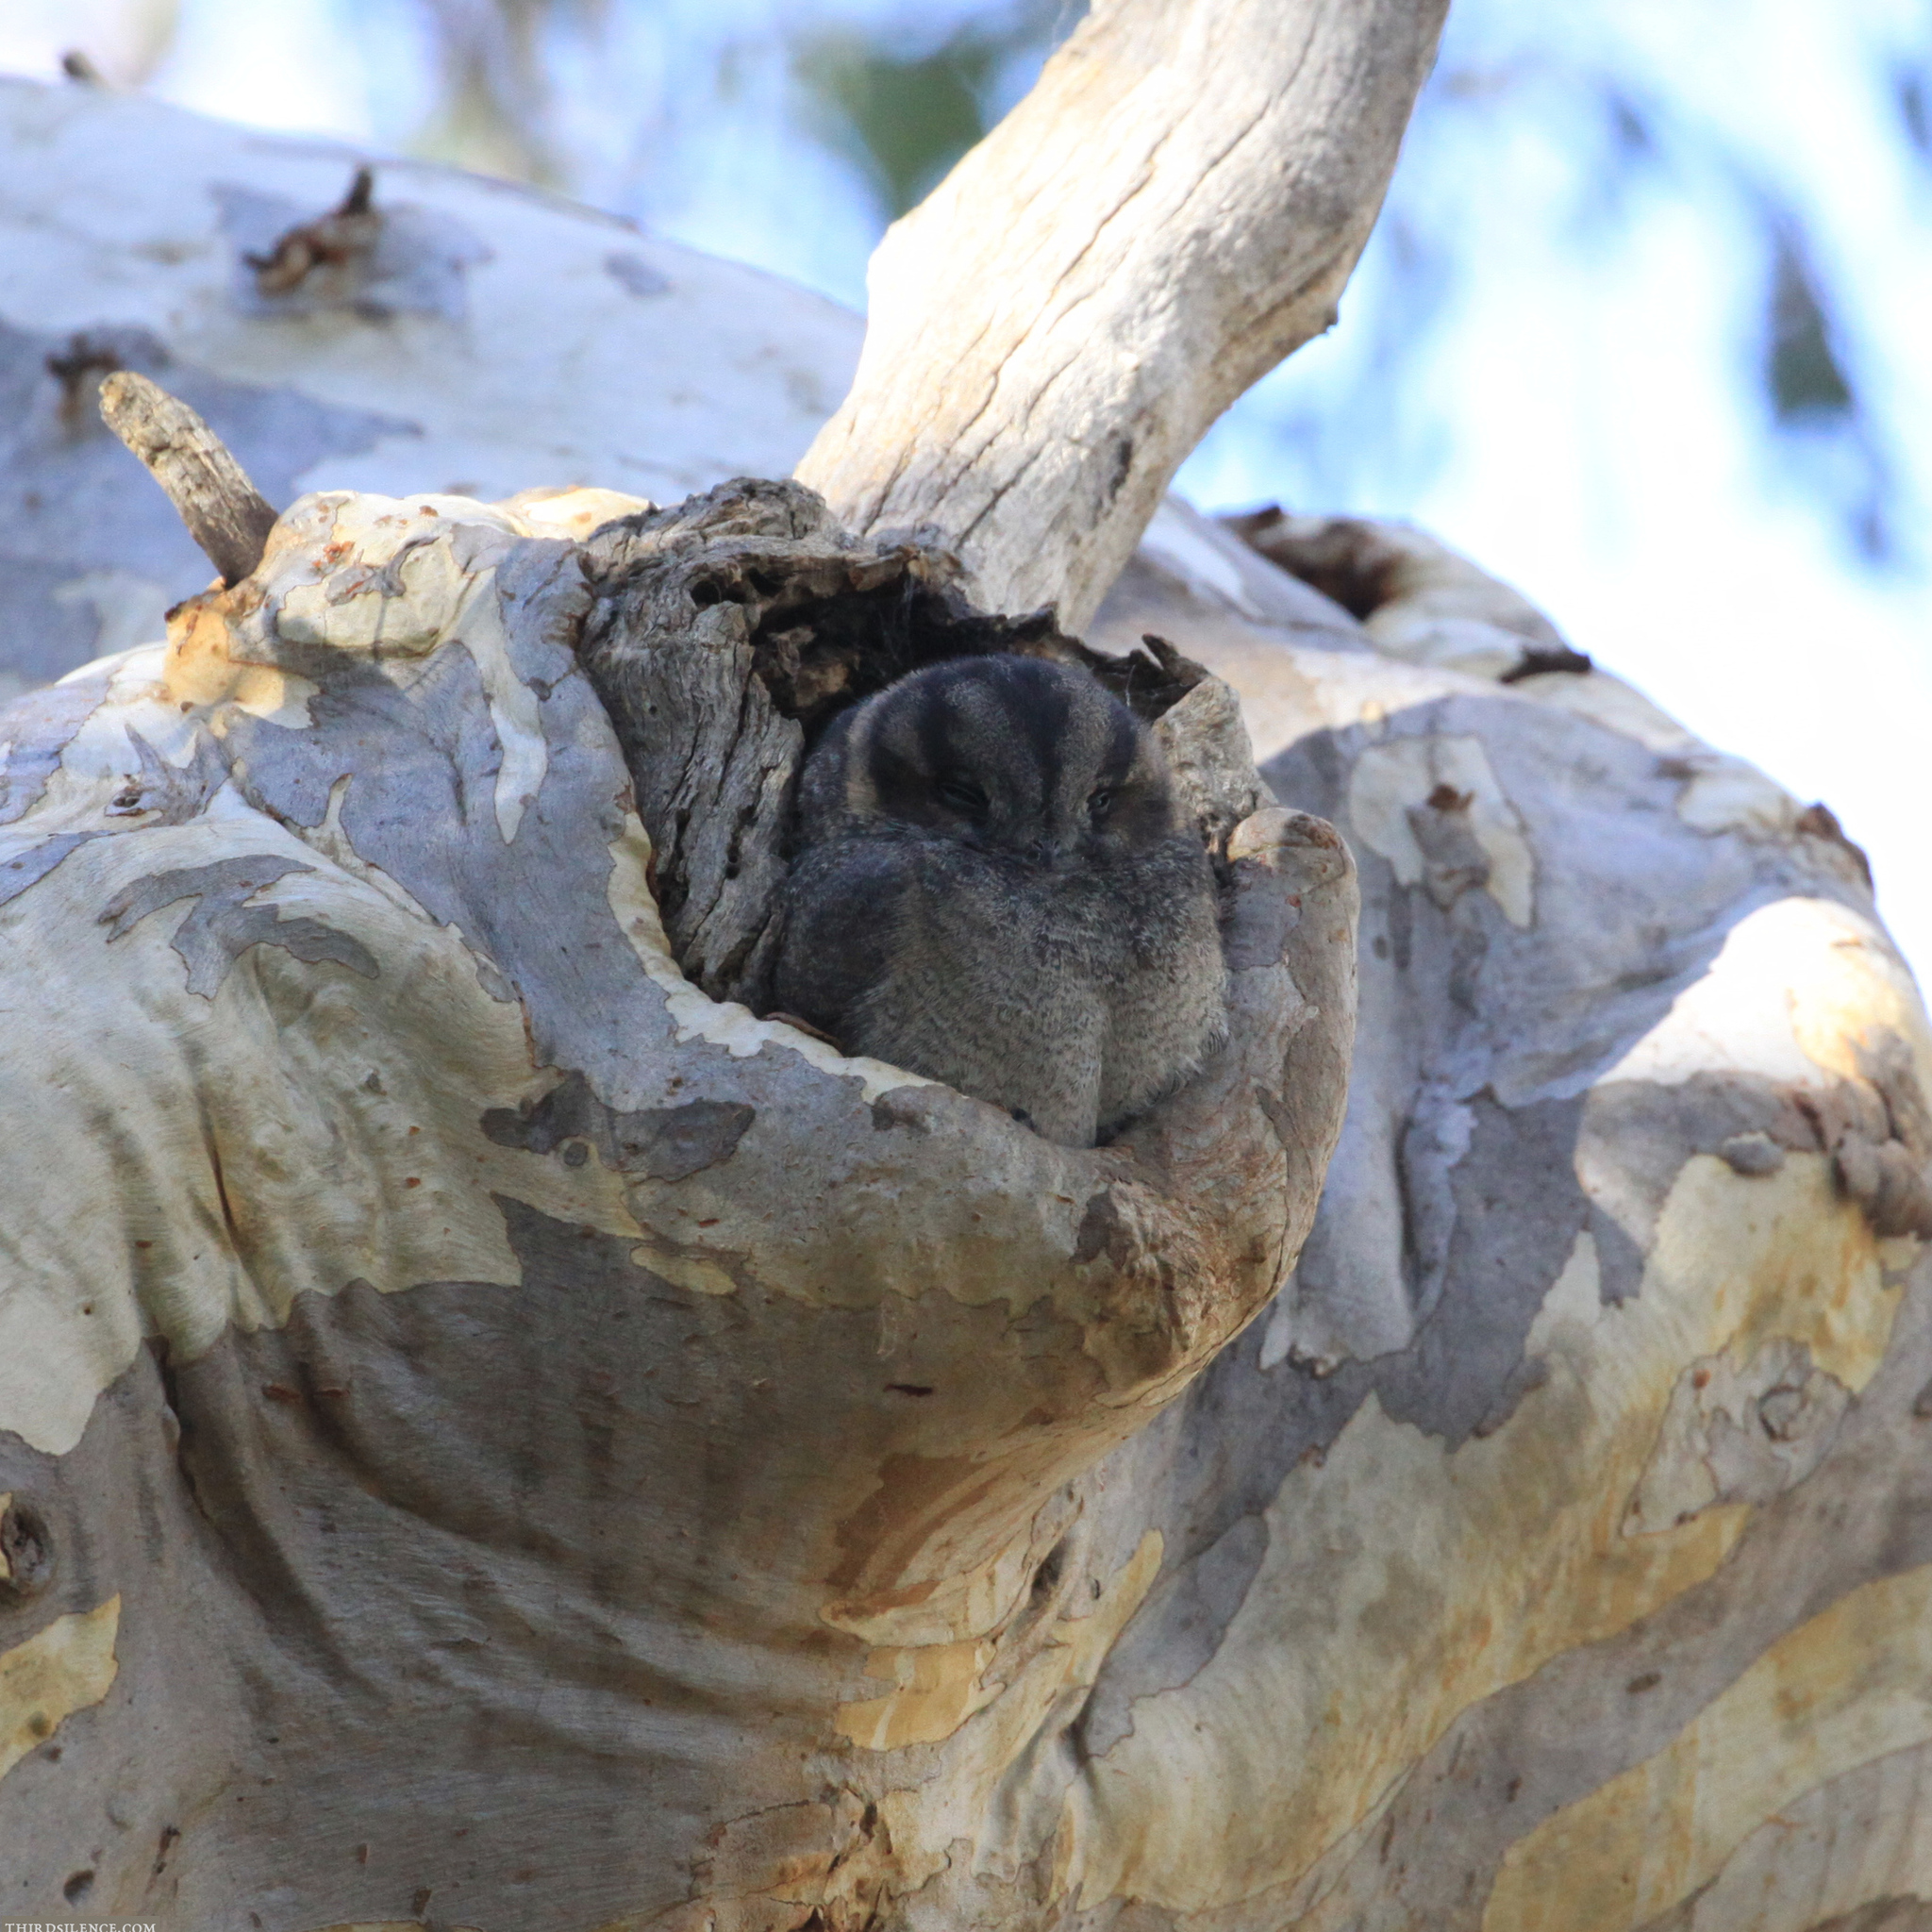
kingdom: Animalia
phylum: Chordata
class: Aves
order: Apodiformes
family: Aegothelidae
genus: Aegotheles
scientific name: Aegotheles cristatus
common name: Australian owlet-nightjar
